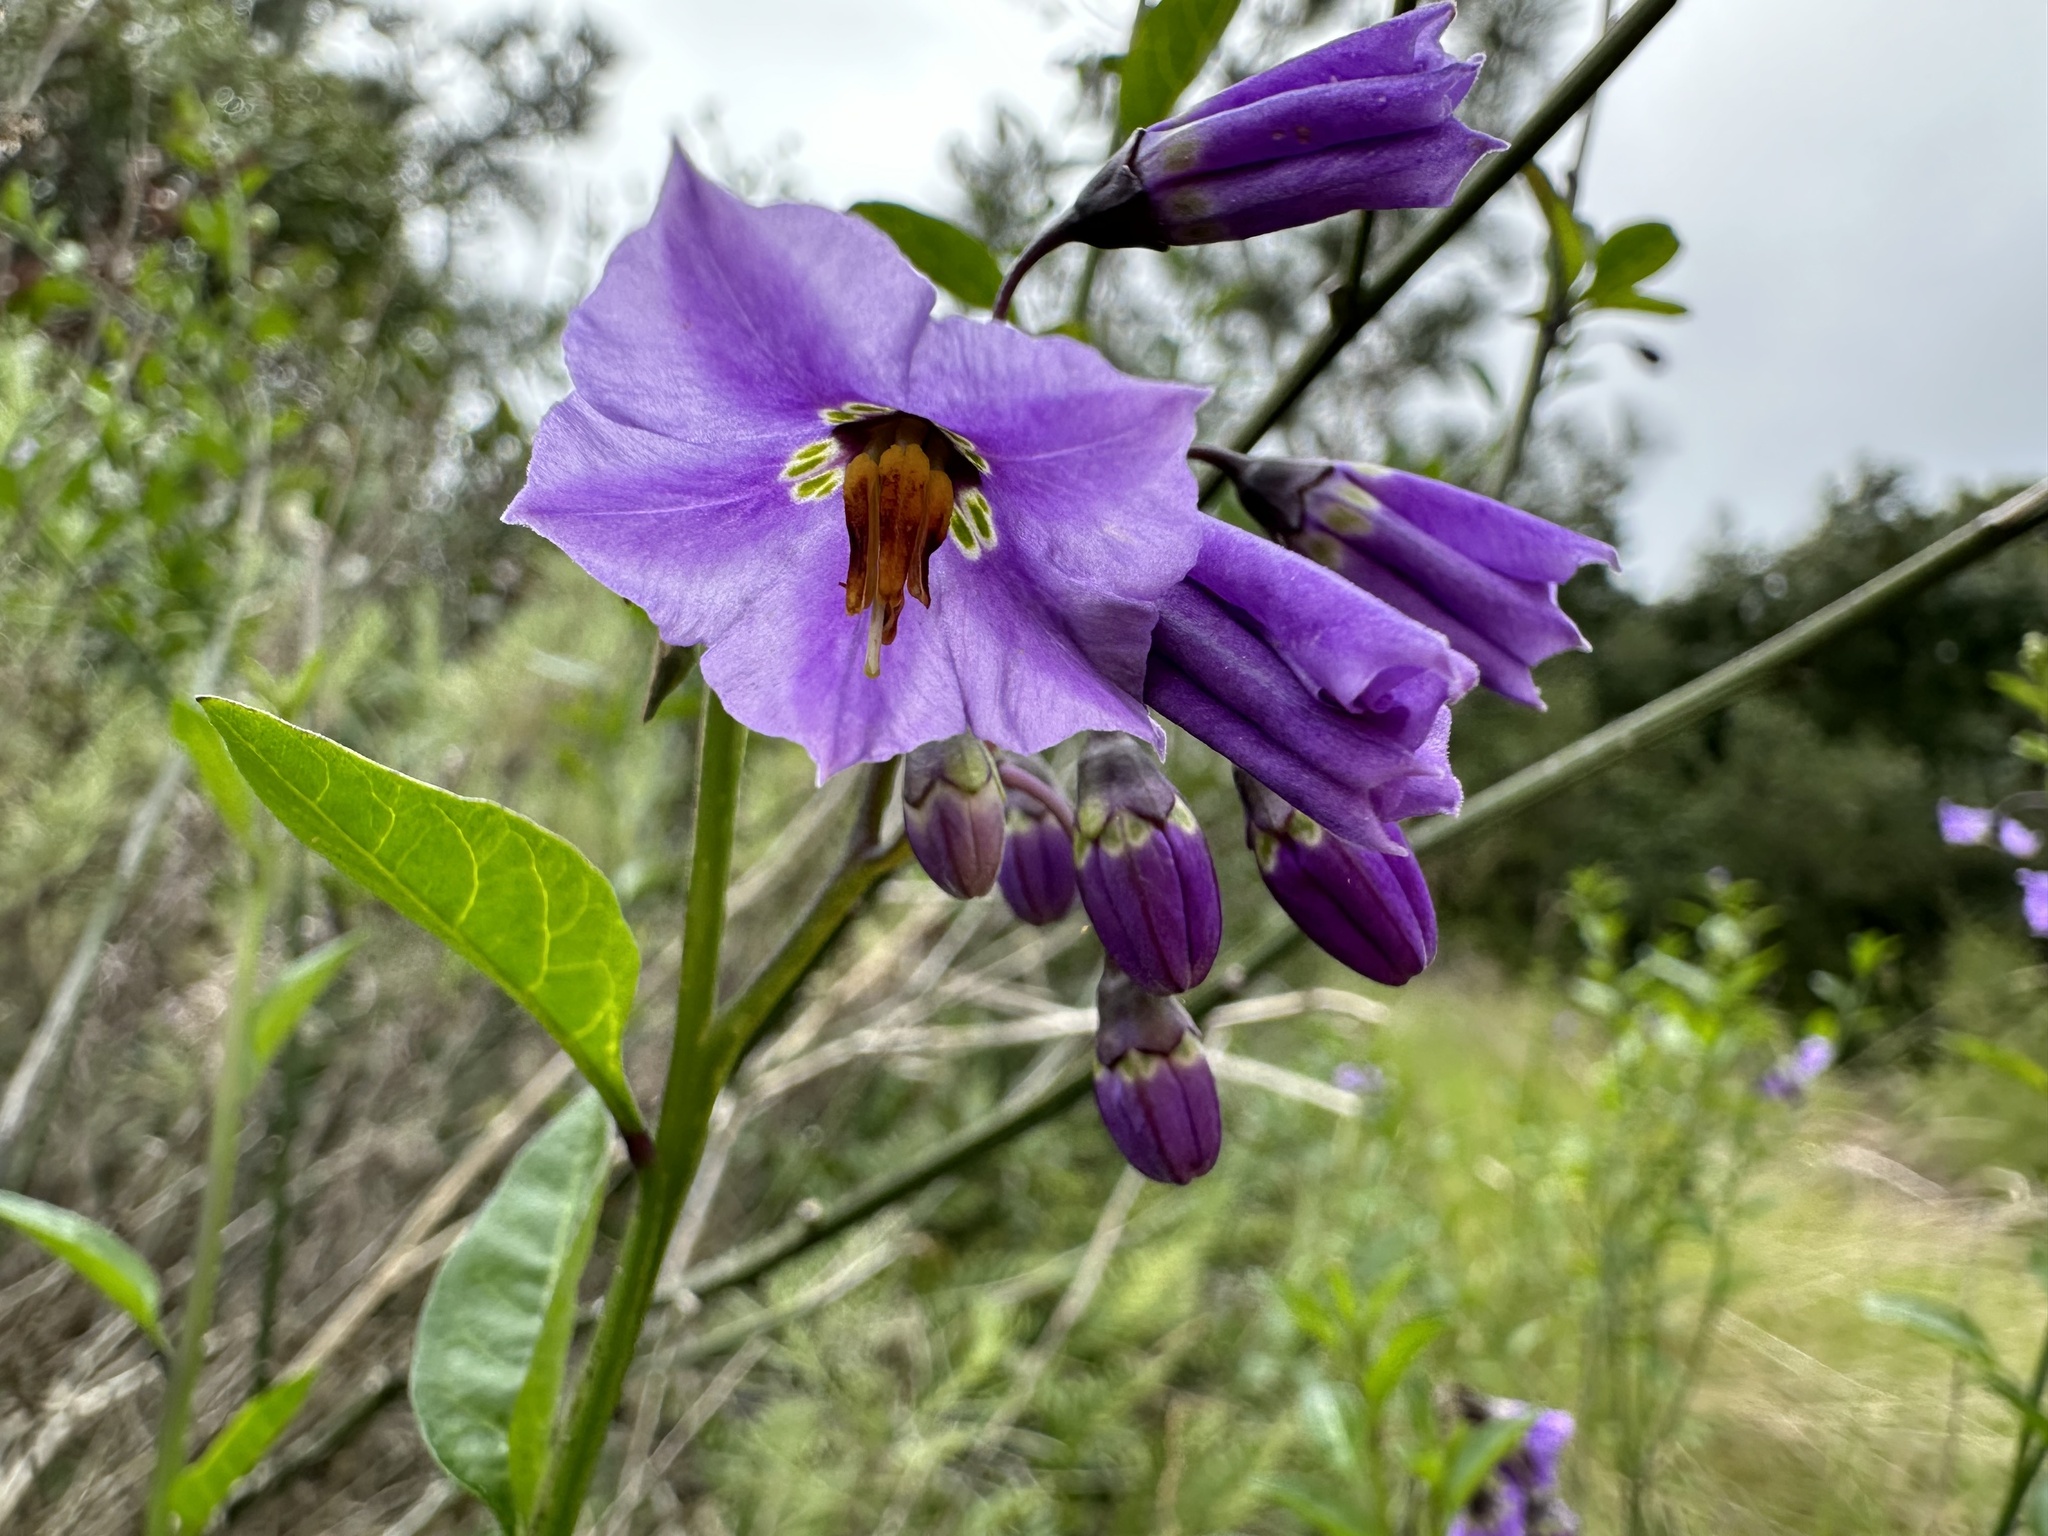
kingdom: Plantae
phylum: Tracheophyta
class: Magnoliopsida
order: Solanales
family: Solanaceae
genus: Solanum
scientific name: Solanum umbelliferum
